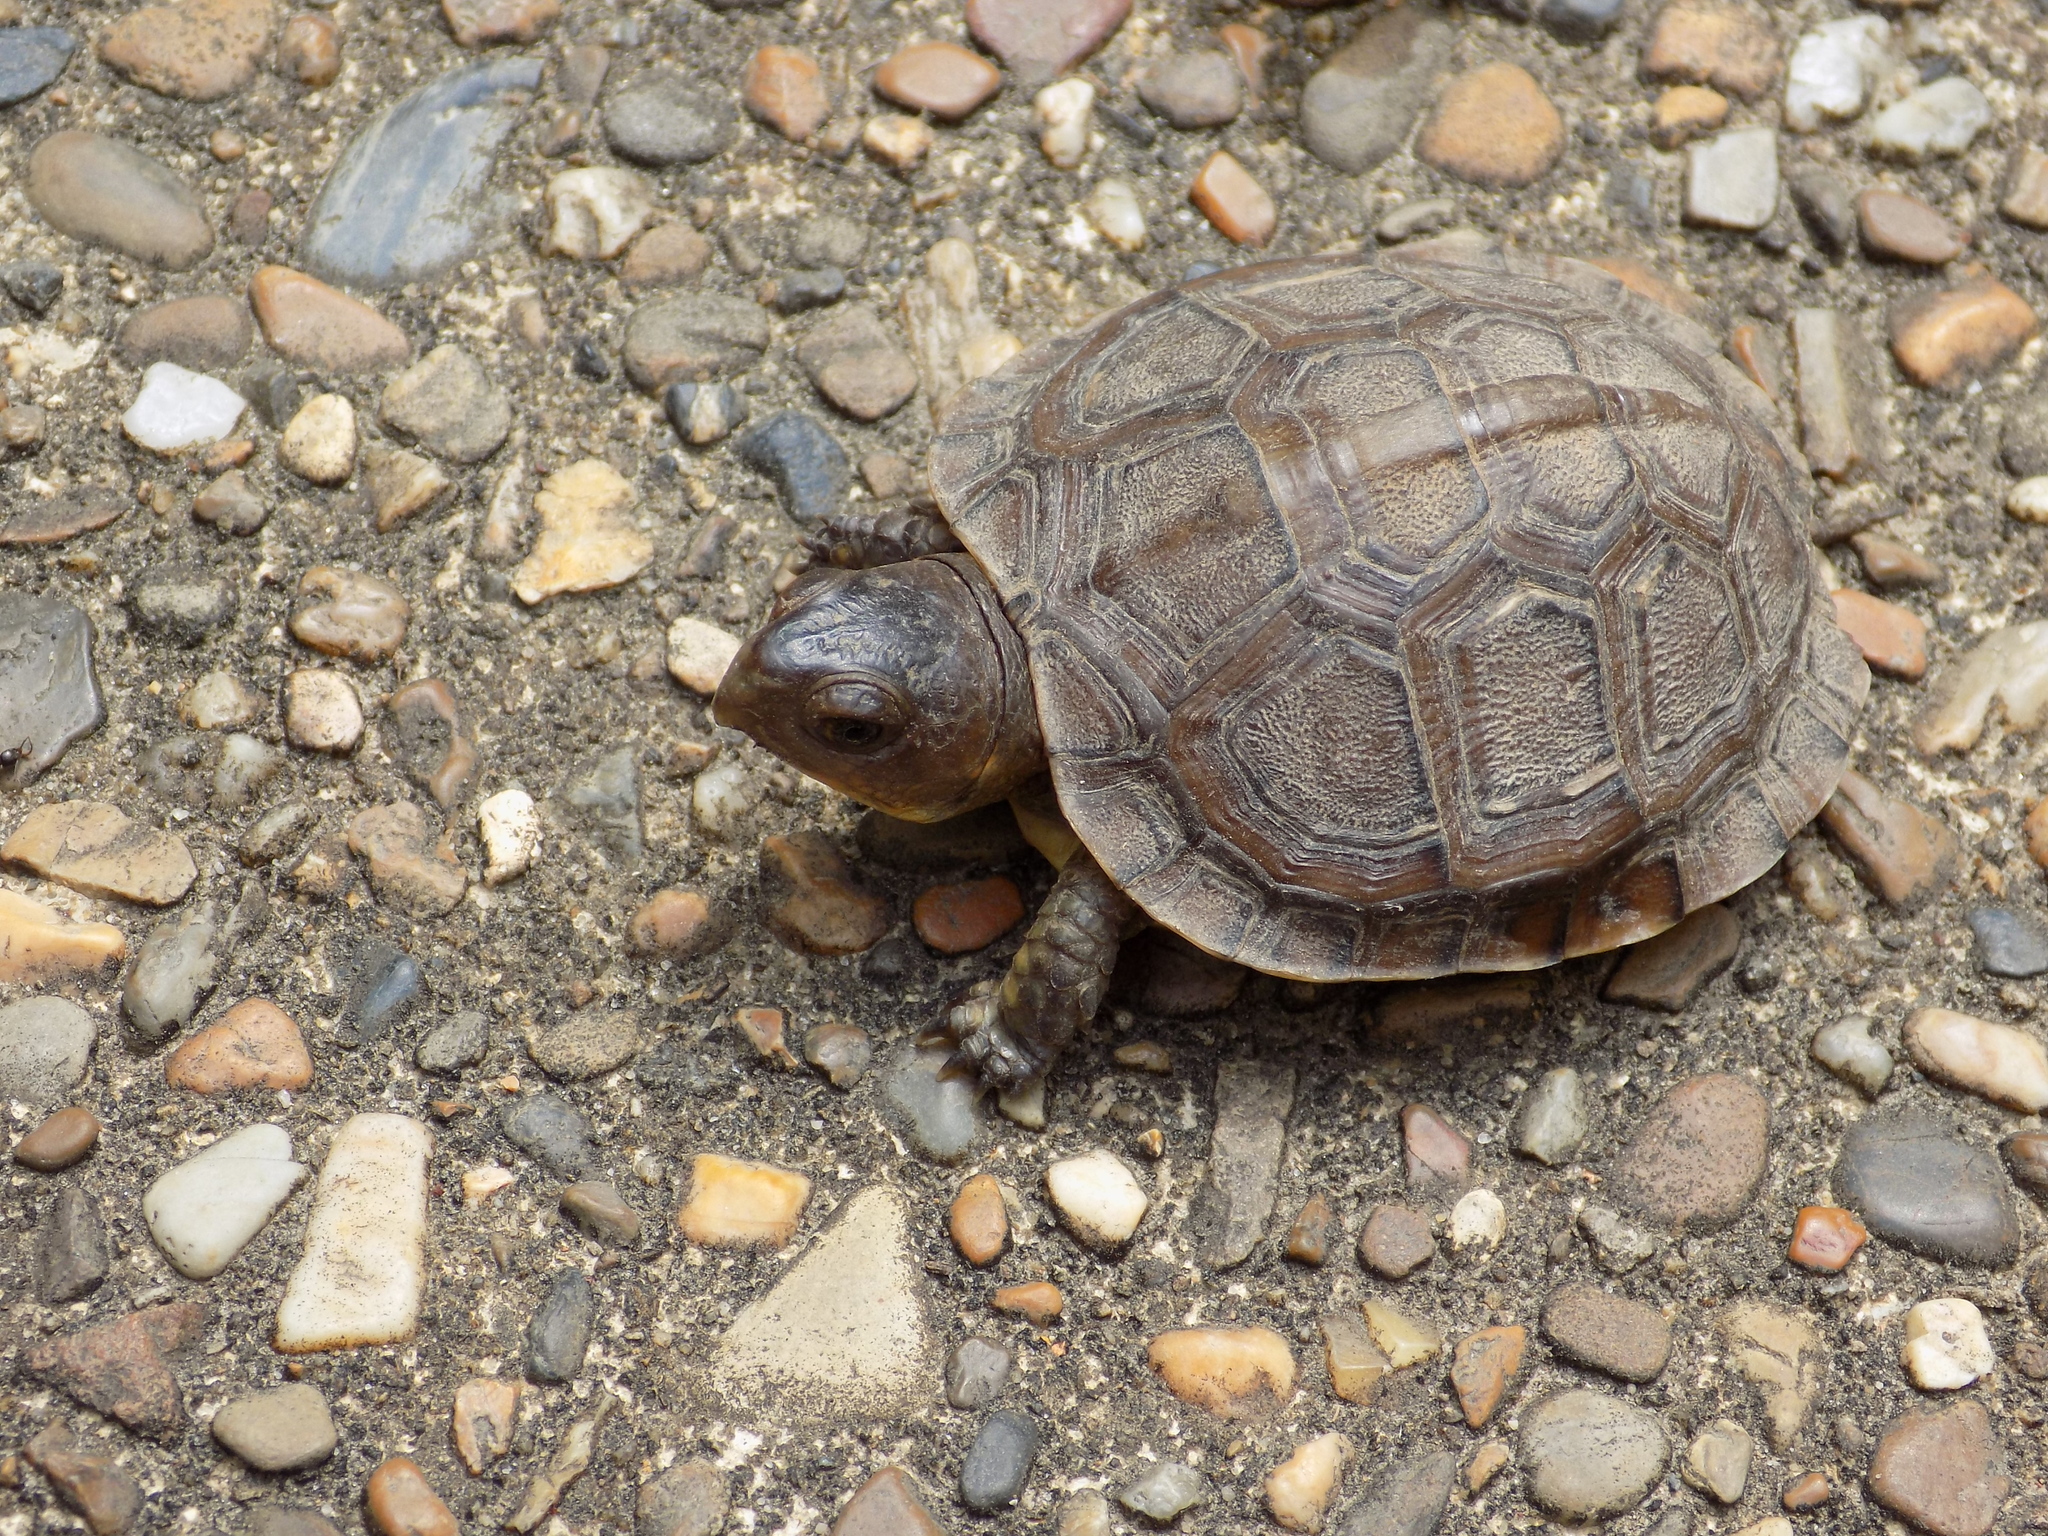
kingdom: Animalia
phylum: Chordata
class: Testudines
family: Emydidae
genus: Terrapene
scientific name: Terrapene carolina
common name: Common box turtle
